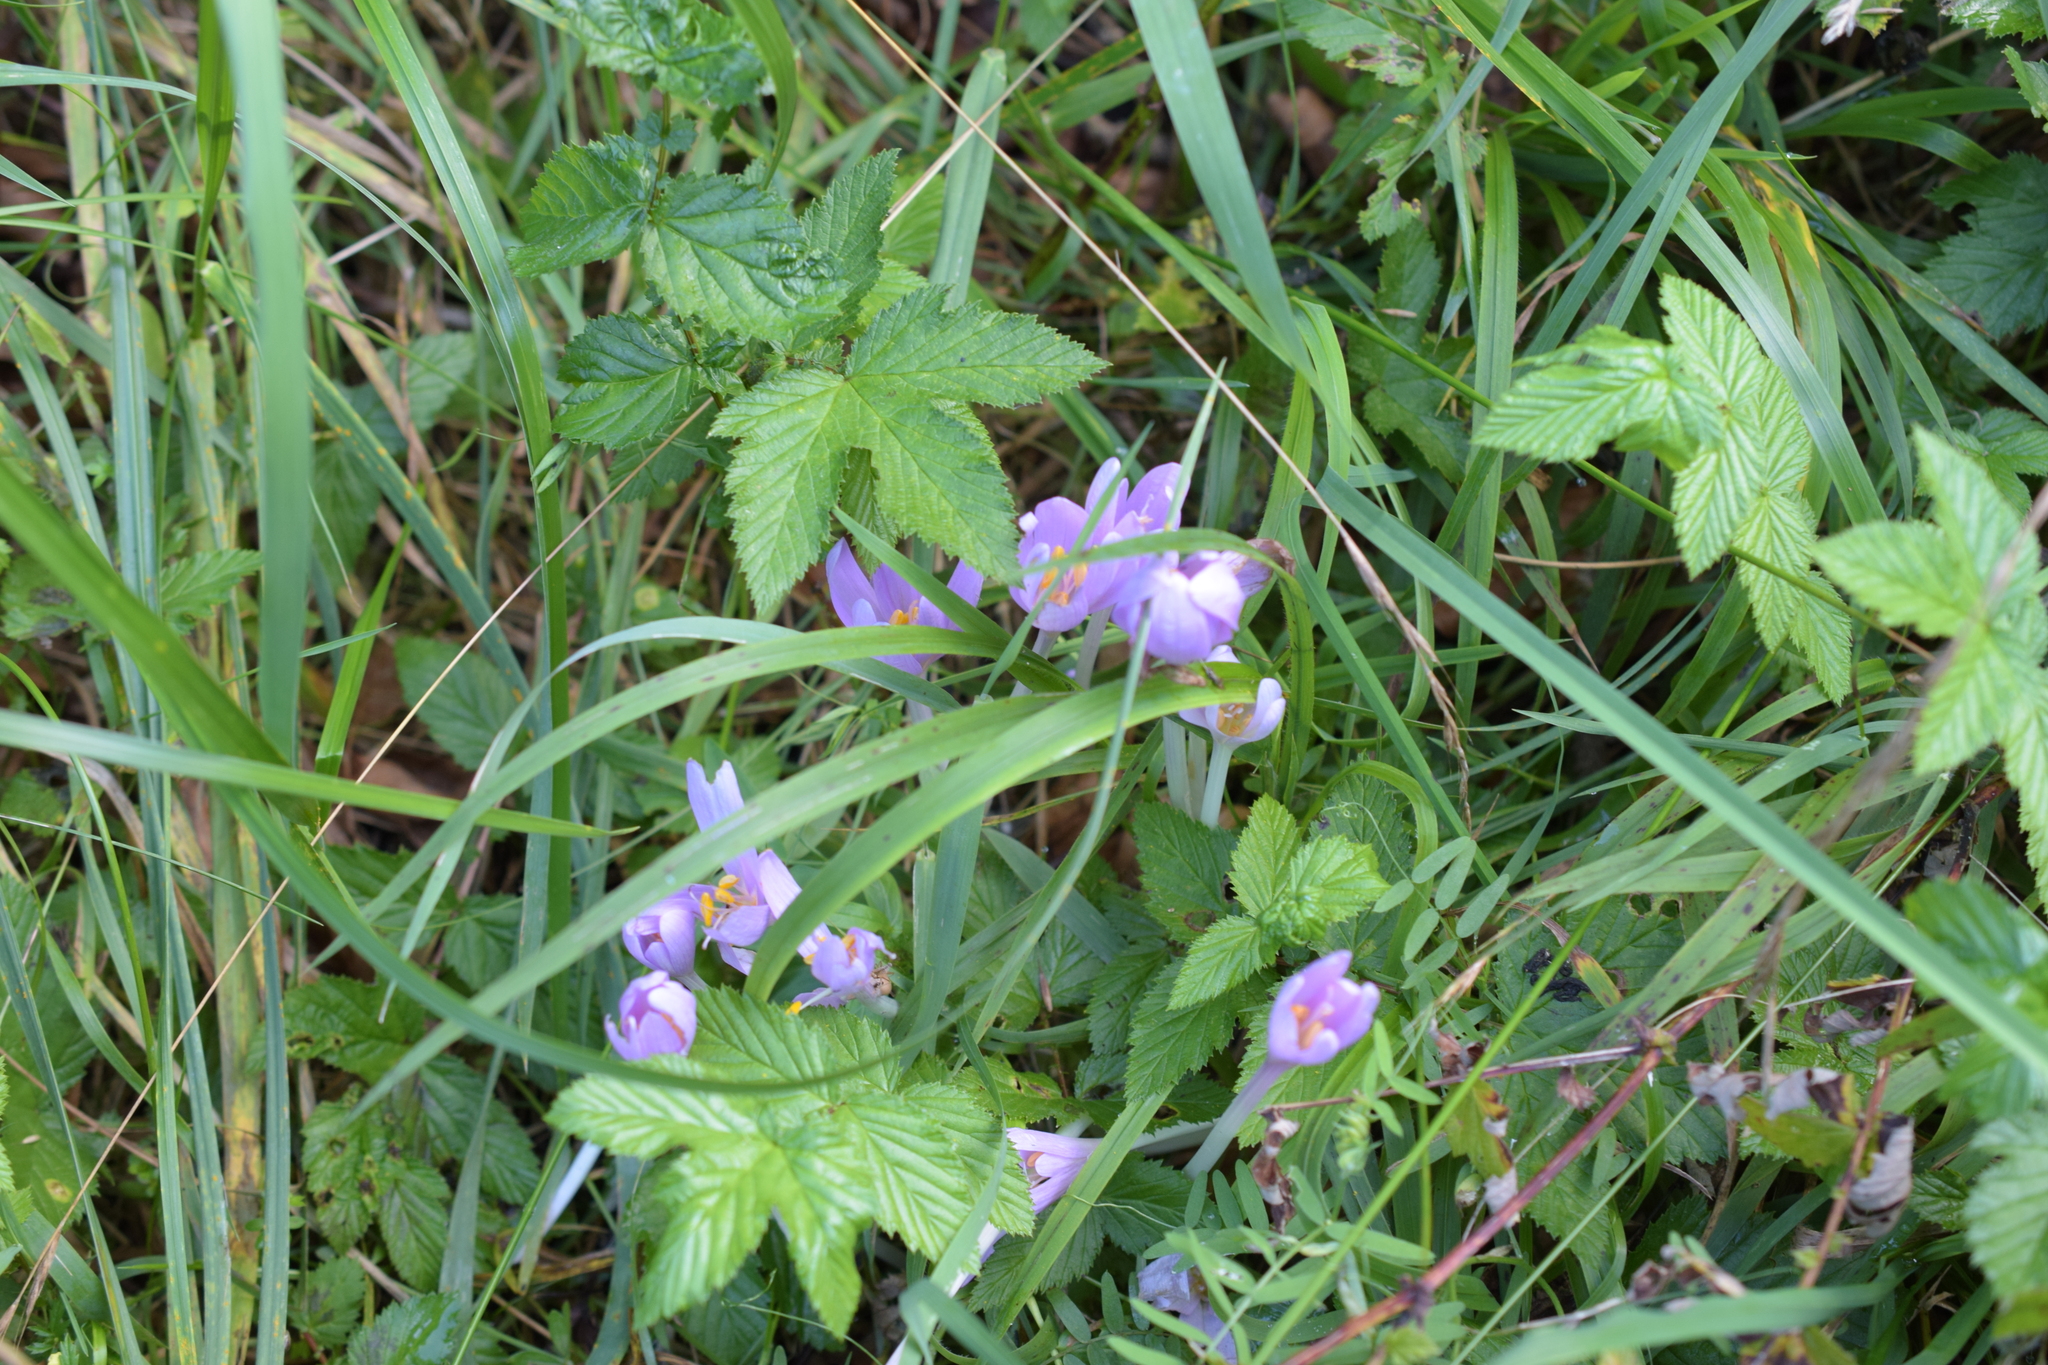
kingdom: Plantae
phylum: Tracheophyta
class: Liliopsida
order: Liliales
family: Colchicaceae
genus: Colchicum
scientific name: Colchicum autumnale
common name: Autumn crocus
